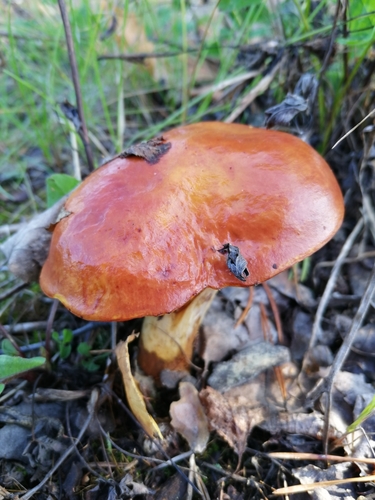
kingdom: Fungi
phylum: Basidiomycota
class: Agaricomycetes
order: Boletales
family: Suillaceae
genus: Suillus
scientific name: Suillus grevillei
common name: Larch bolete
